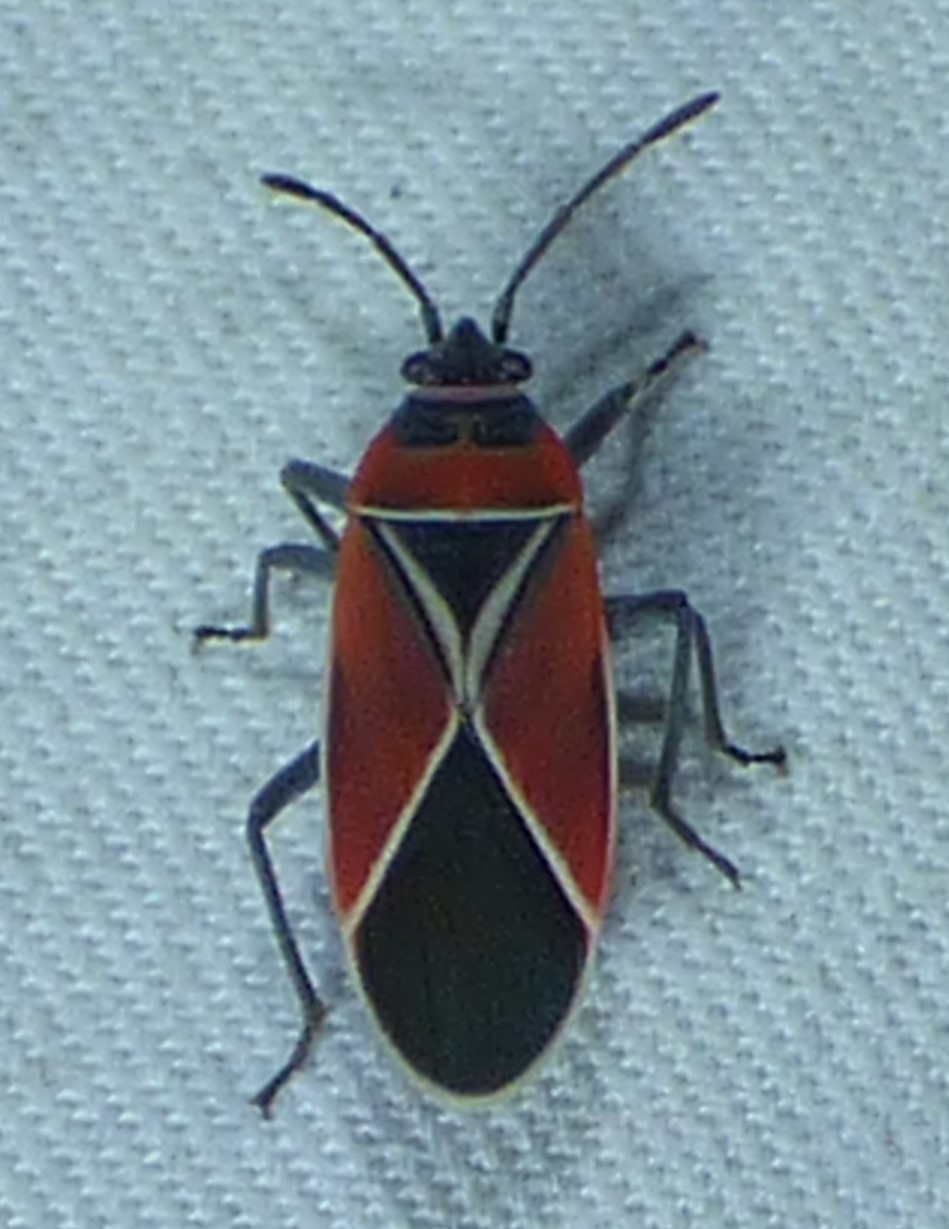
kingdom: Animalia
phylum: Arthropoda
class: Insecta
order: Hemiptera
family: Lygaeidae
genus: Neacoryphus
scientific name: Neacoryphus bicrucis
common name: Lygaeid bug
